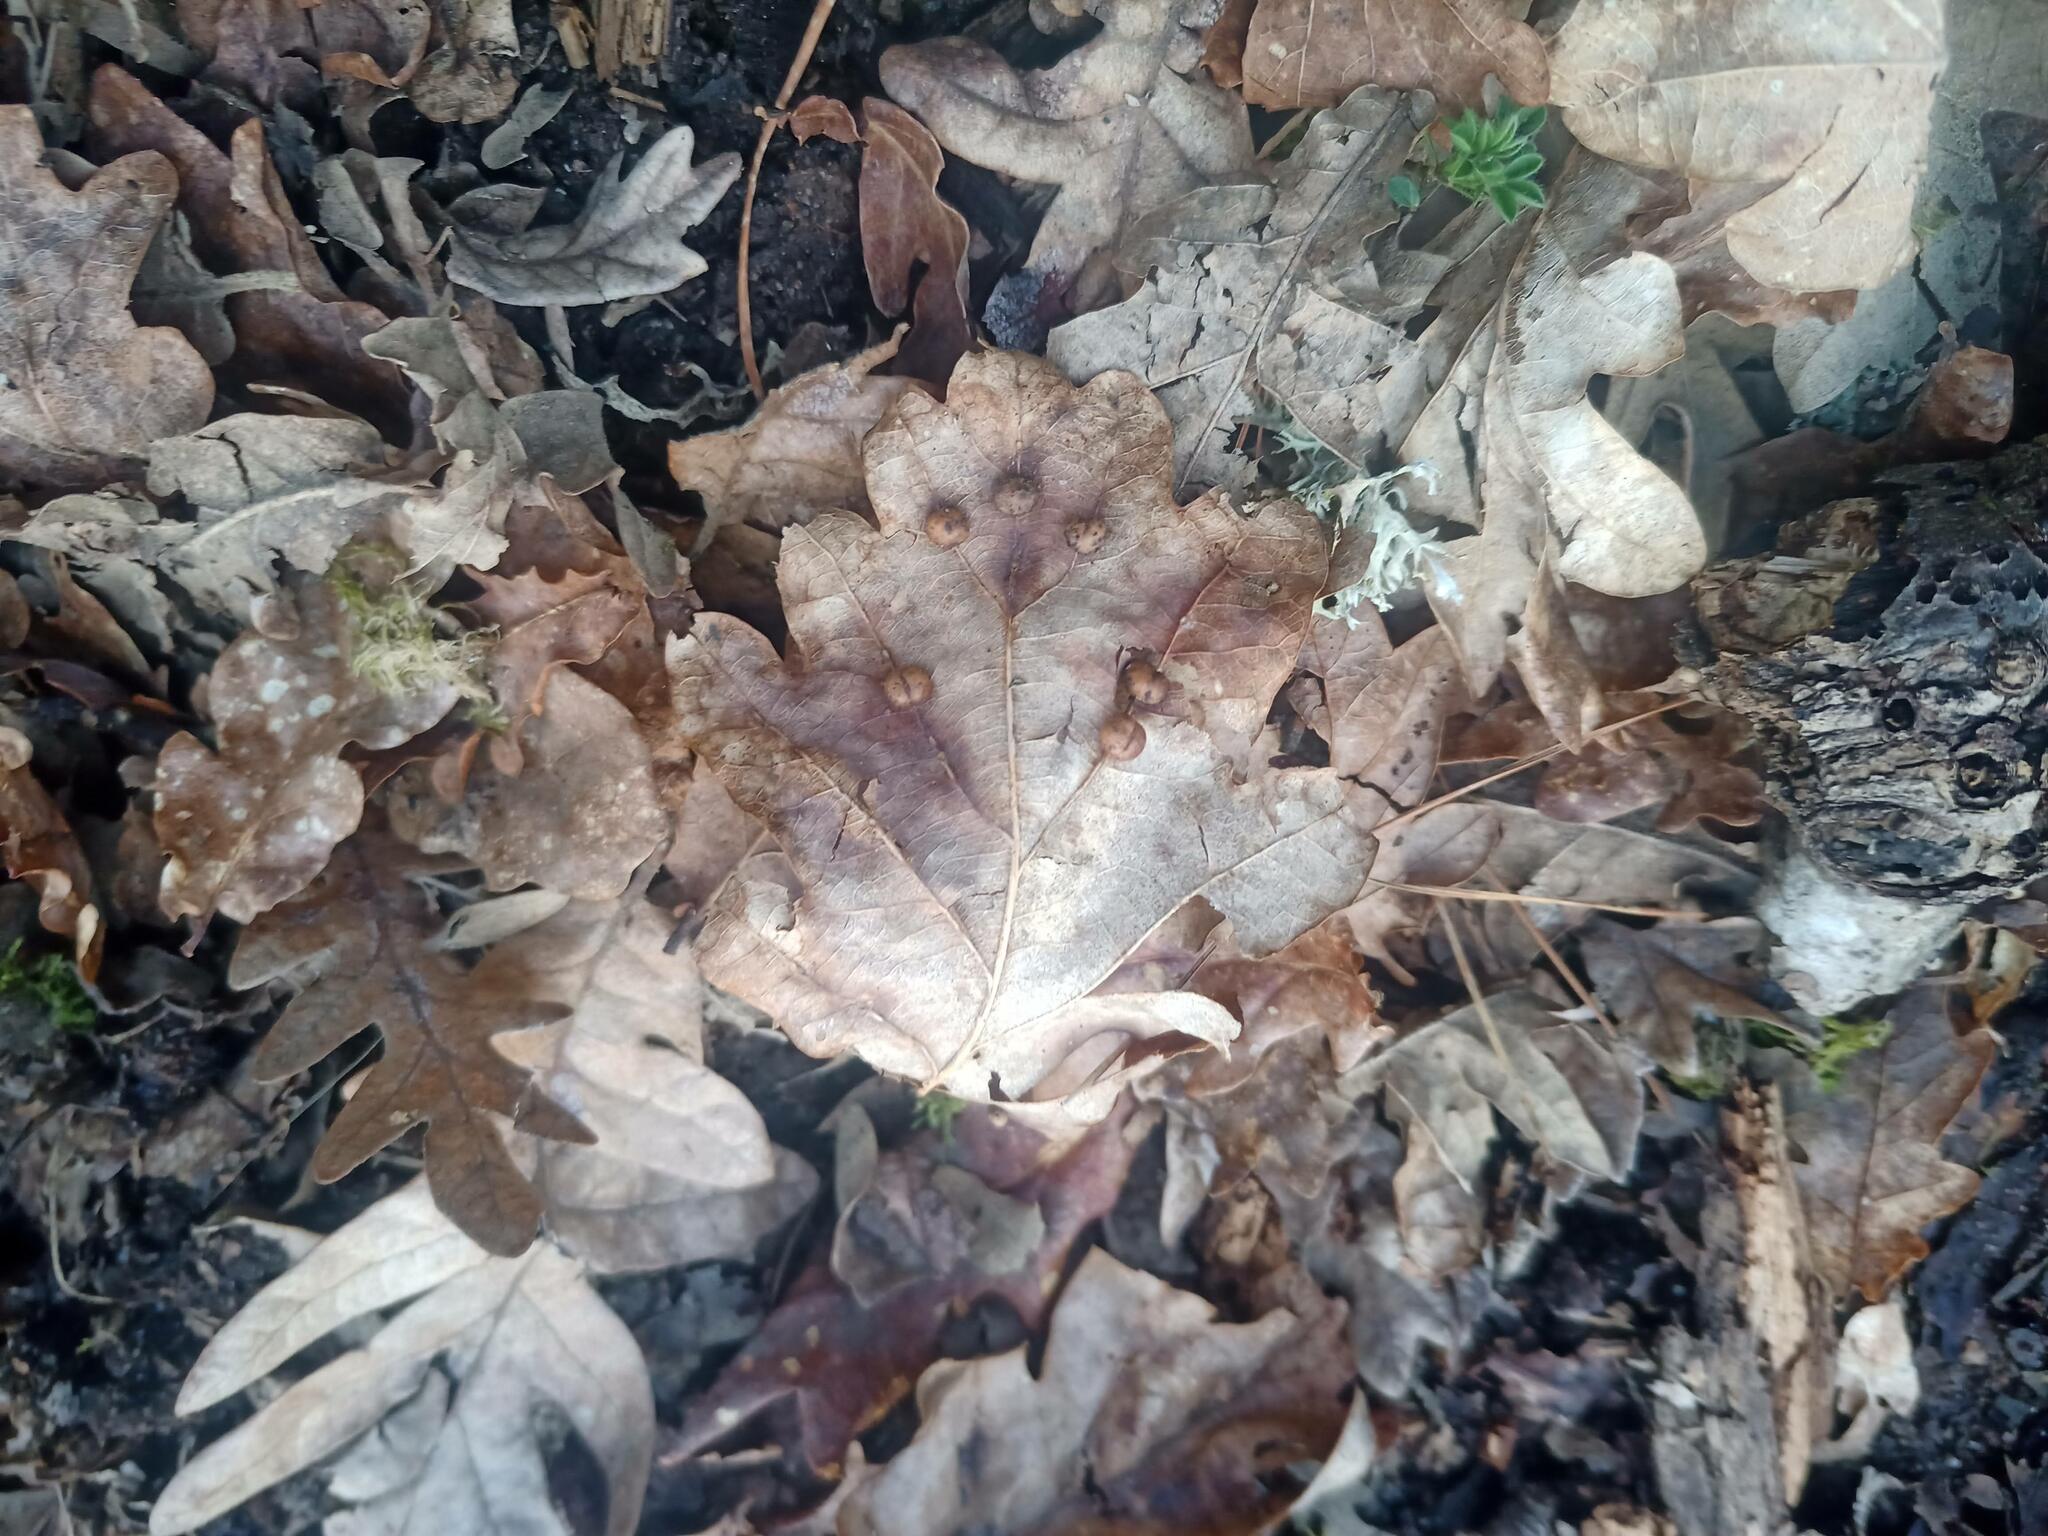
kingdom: Animalia
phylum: Arthropoda
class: Insecta
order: Hymenoptera
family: Cynipidae
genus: Cynips
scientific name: Cynips divisa
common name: Red currant gall
